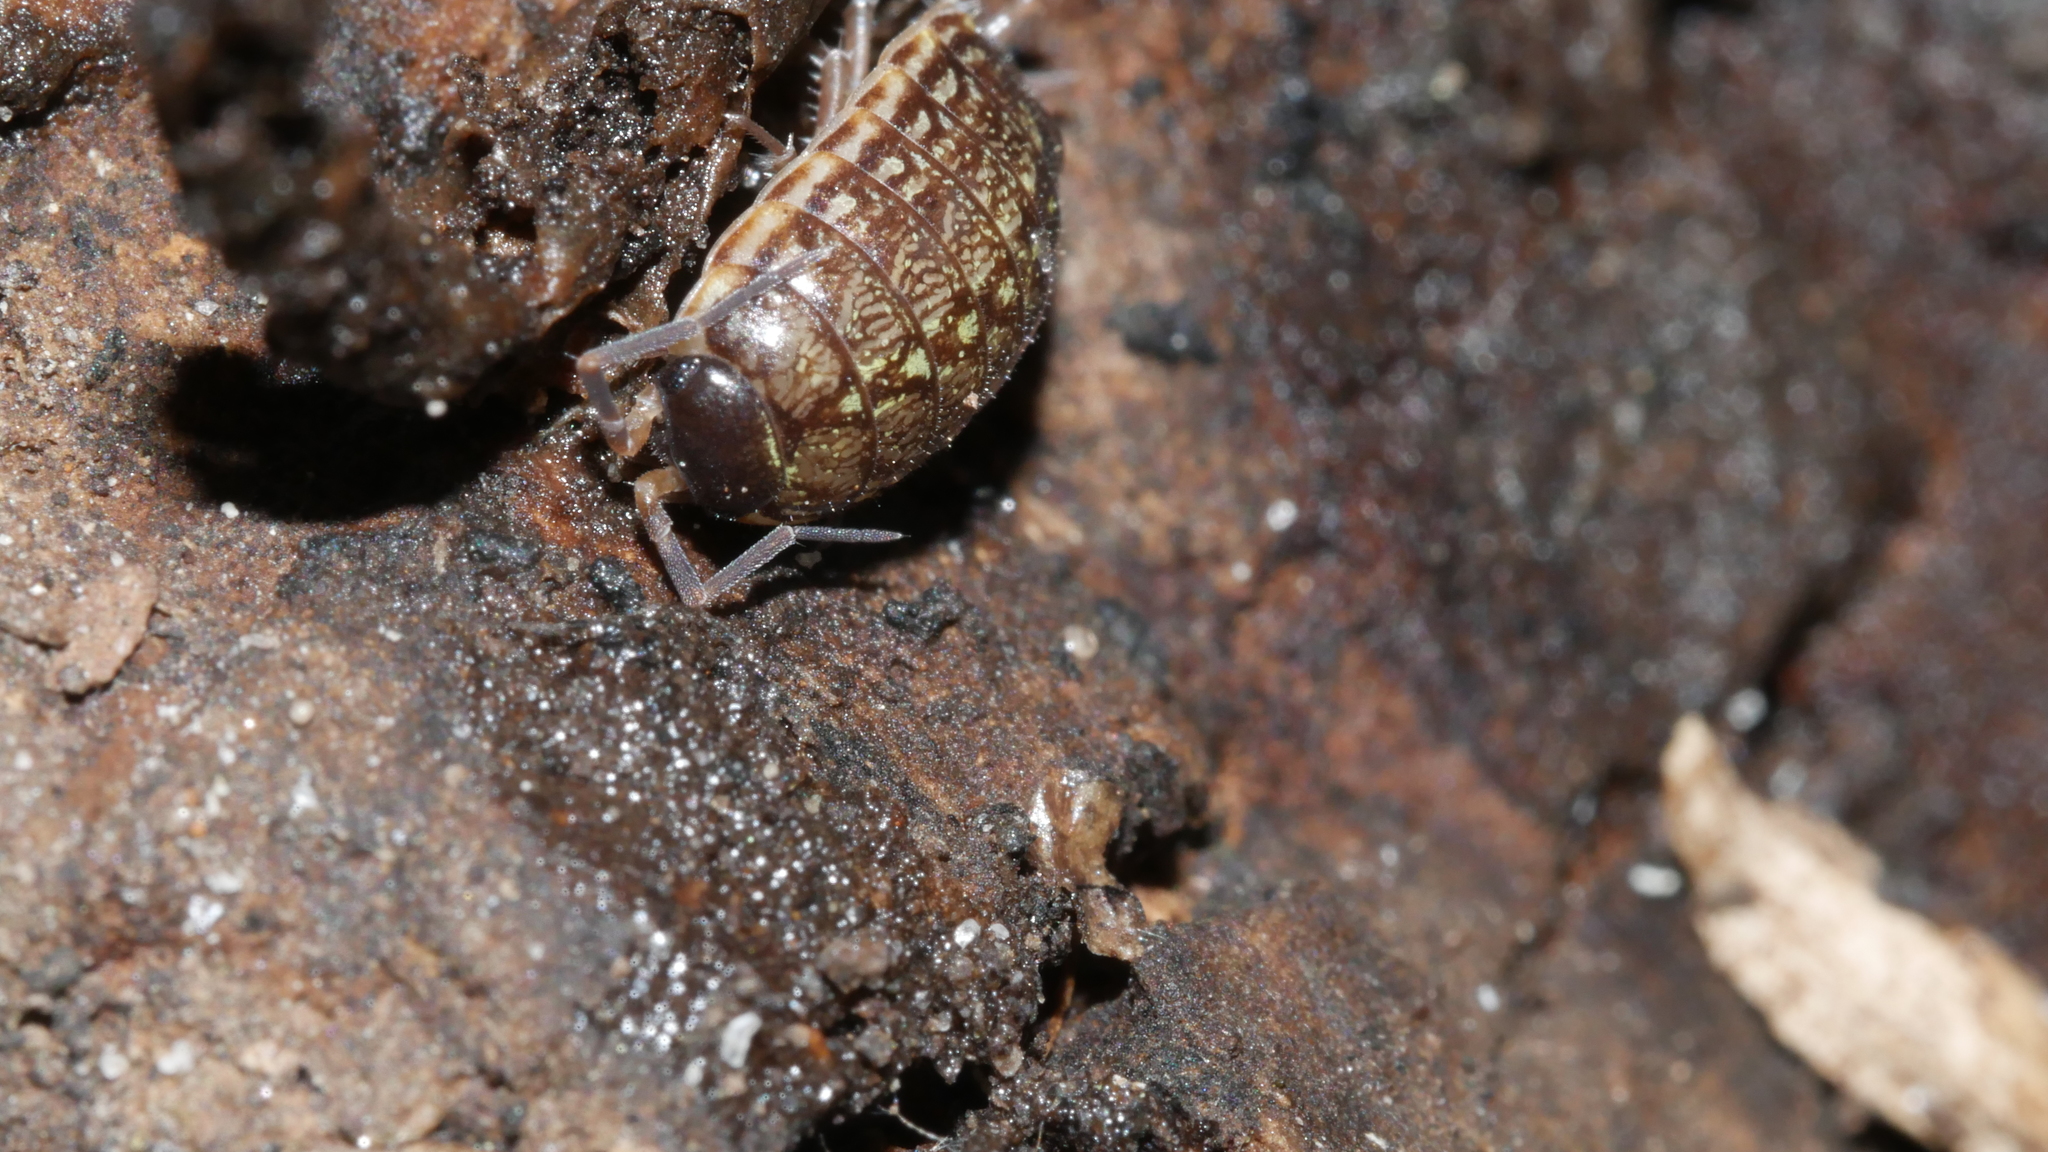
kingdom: Animalia
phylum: Arthropoda
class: Malacostraca
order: Isopoda
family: Philosciidae
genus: Philoscia
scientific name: Philoscia muscorum
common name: Common striped woodlouse
